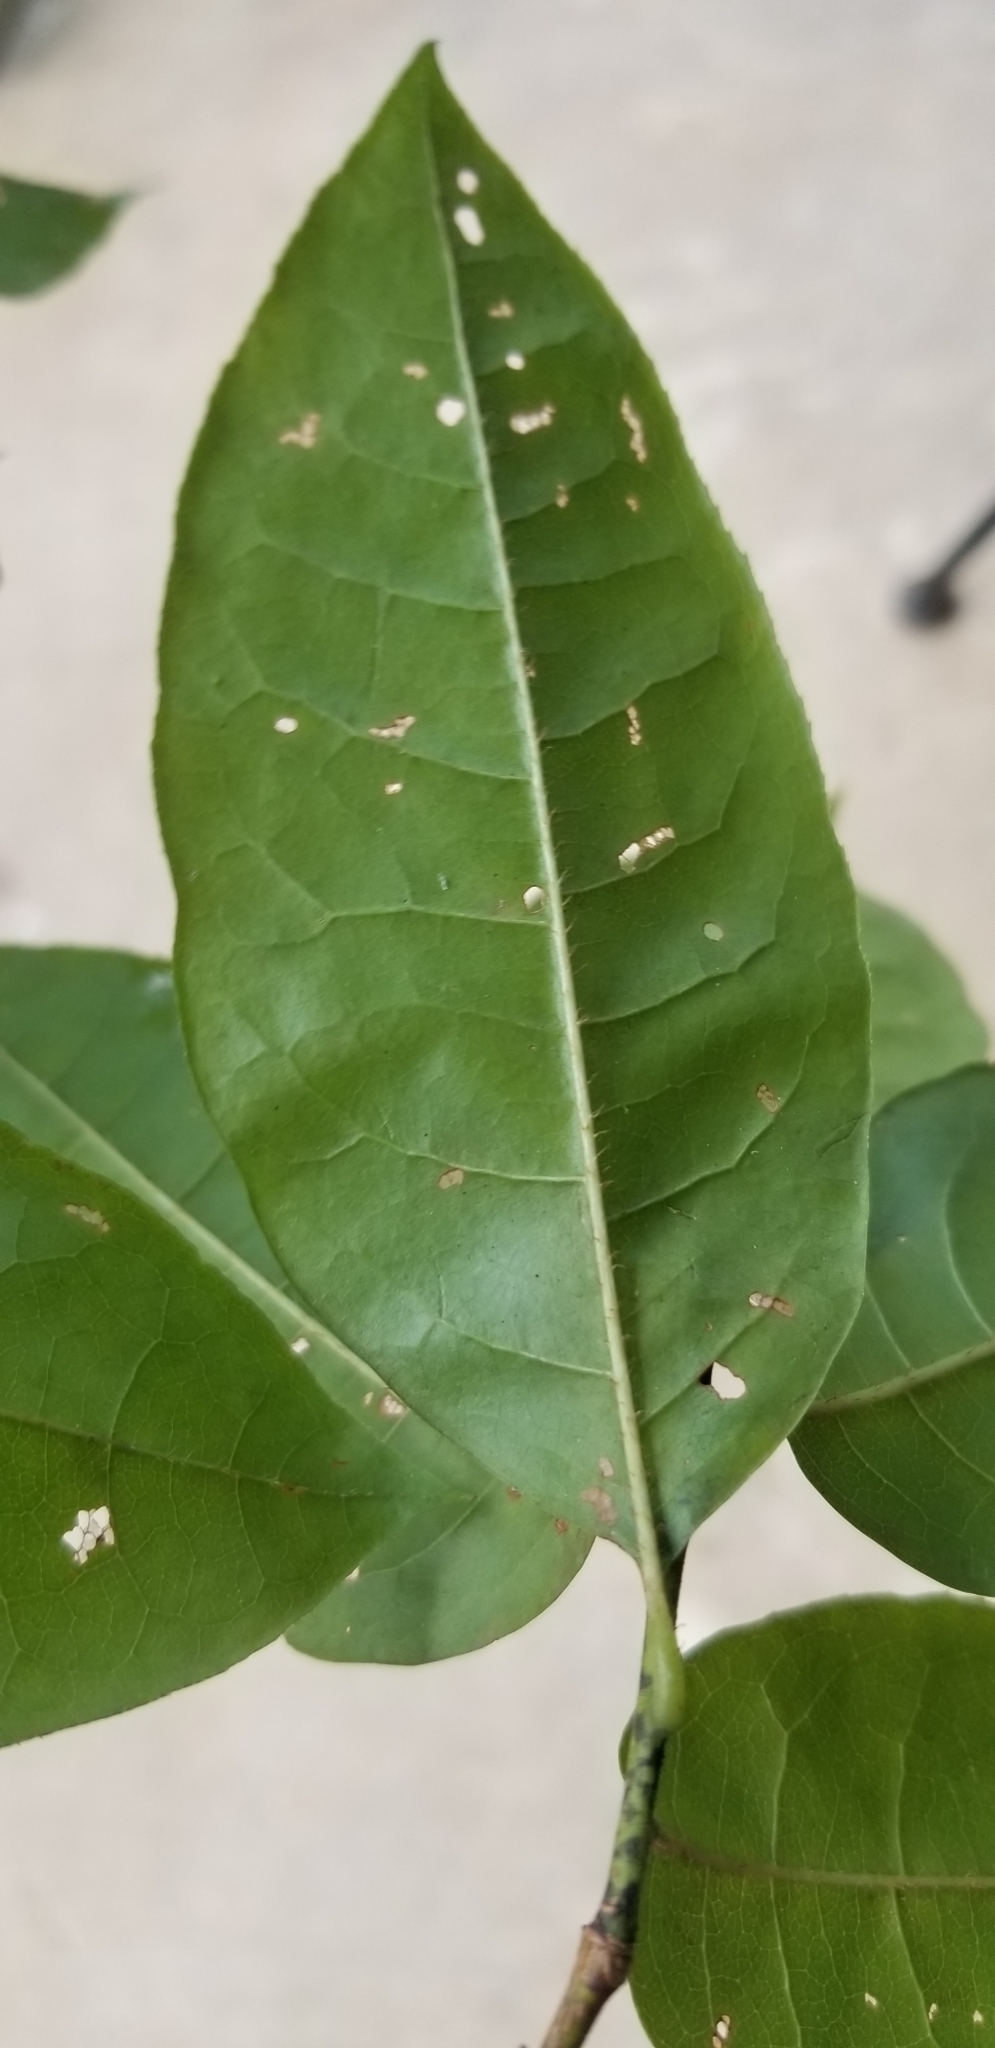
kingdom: Plantae
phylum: Tracheophyta
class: Magnoliopsida
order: Ericales
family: Ericaceae
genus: Oxydendrum
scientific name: Oxydendrum arboreum
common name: Sourwood
